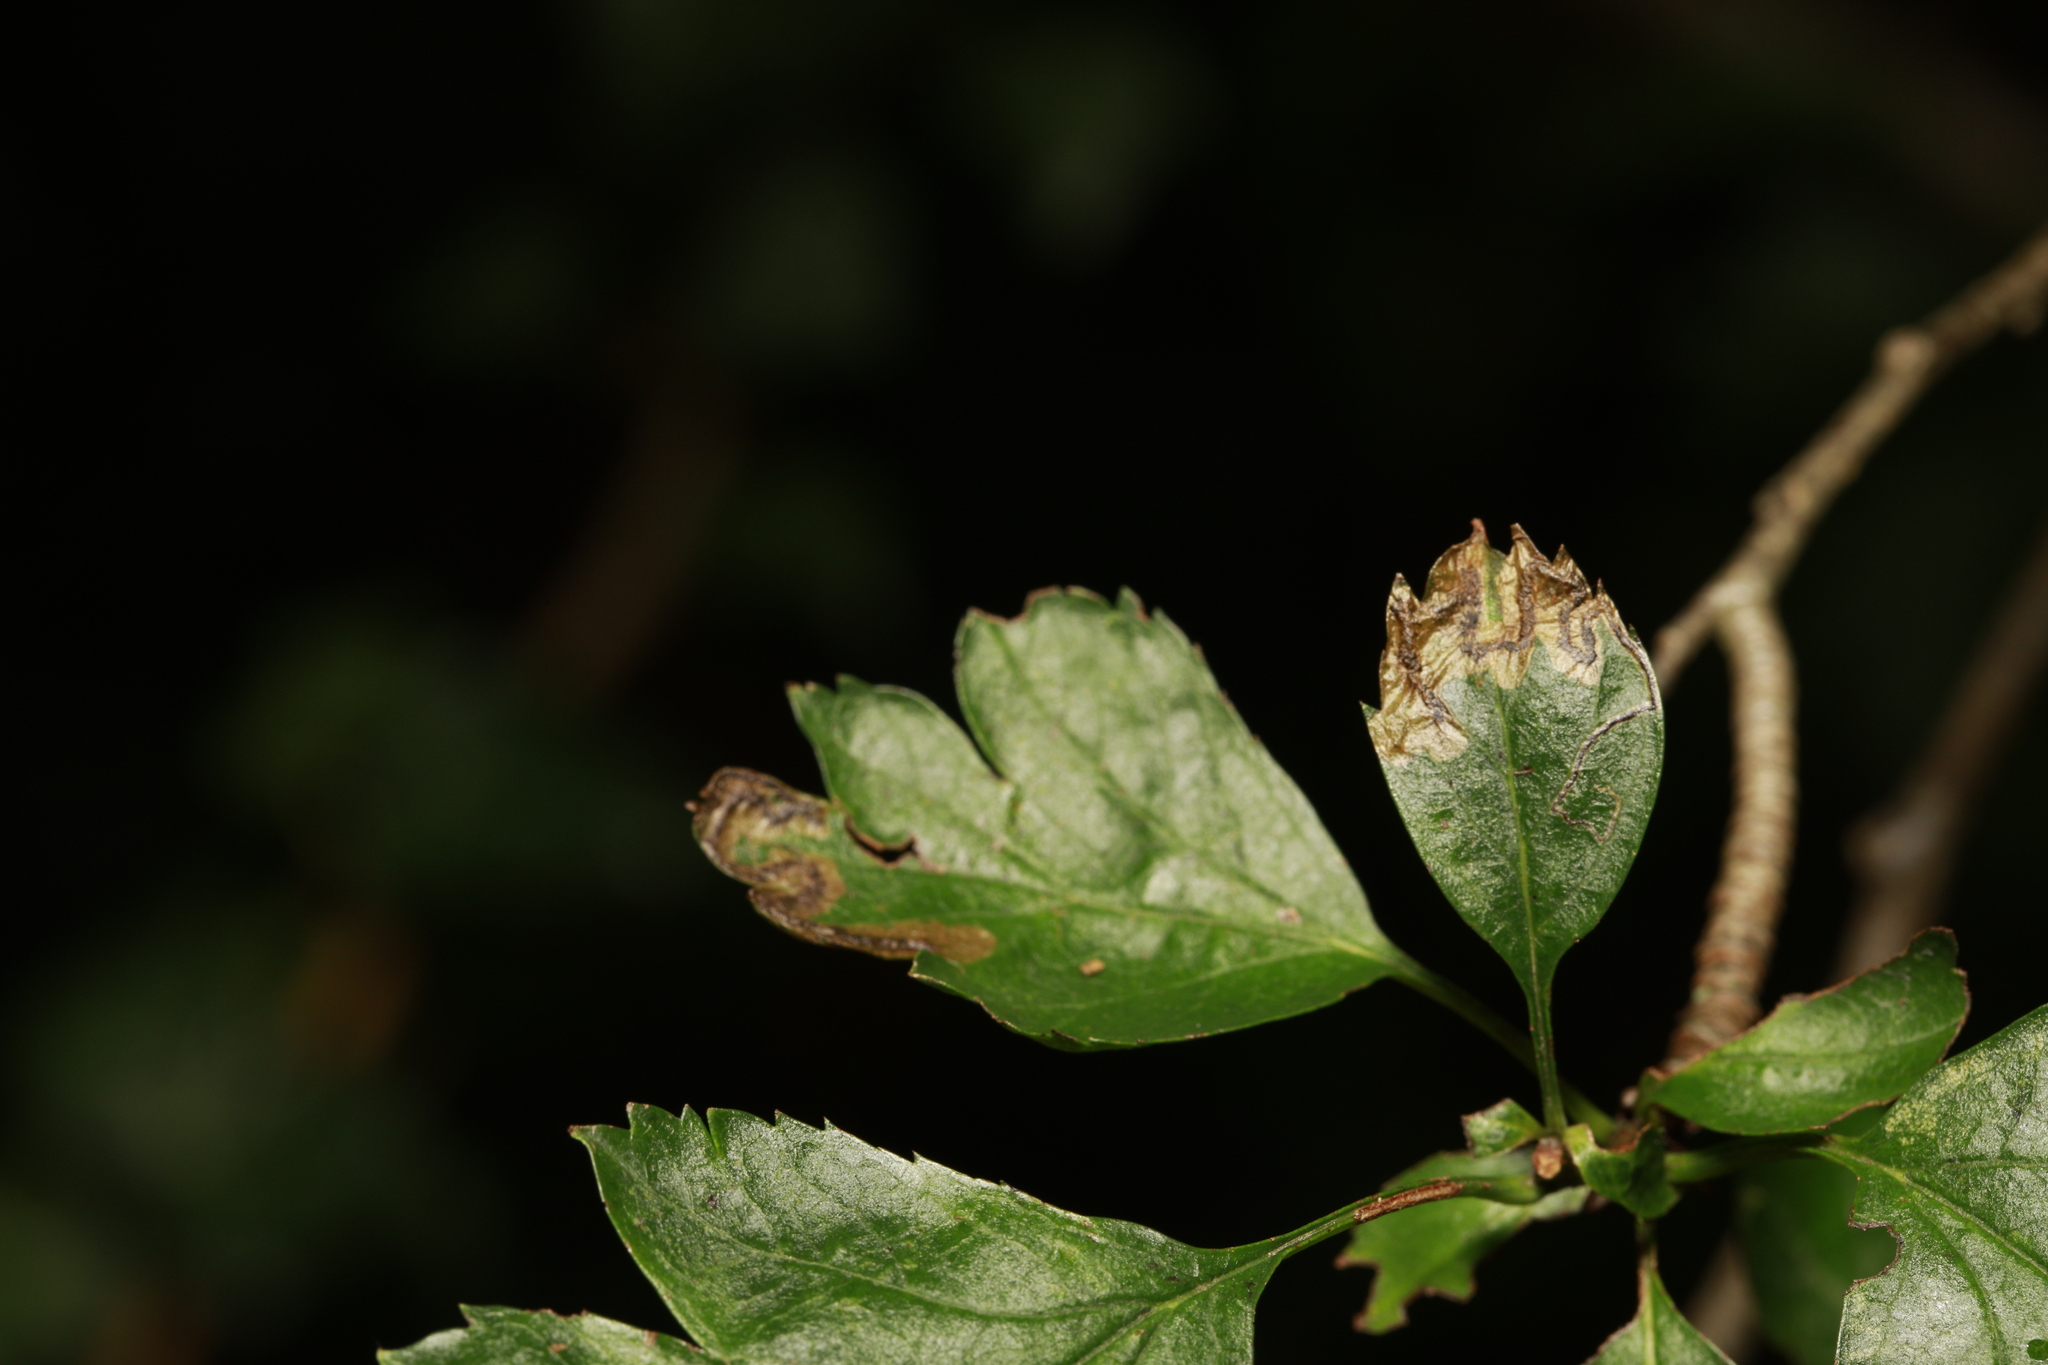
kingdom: Animalia
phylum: Arthropoda
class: Insecta
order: Lepidoptera
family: Nepticulidae
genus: Stigmella
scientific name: Stigmella oxyacanthella
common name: Common fruit-tree pigmy
